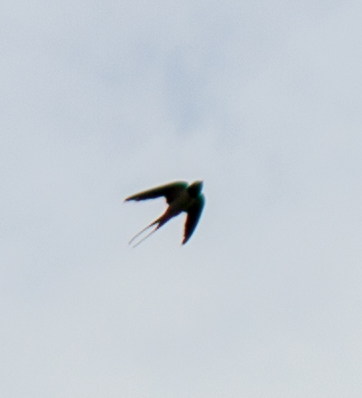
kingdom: Animalia
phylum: Chordata
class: Aves
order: Passeriformes
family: Hirundinidae
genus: Hirundo
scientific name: Hirundo rustica
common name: Barn swallow
